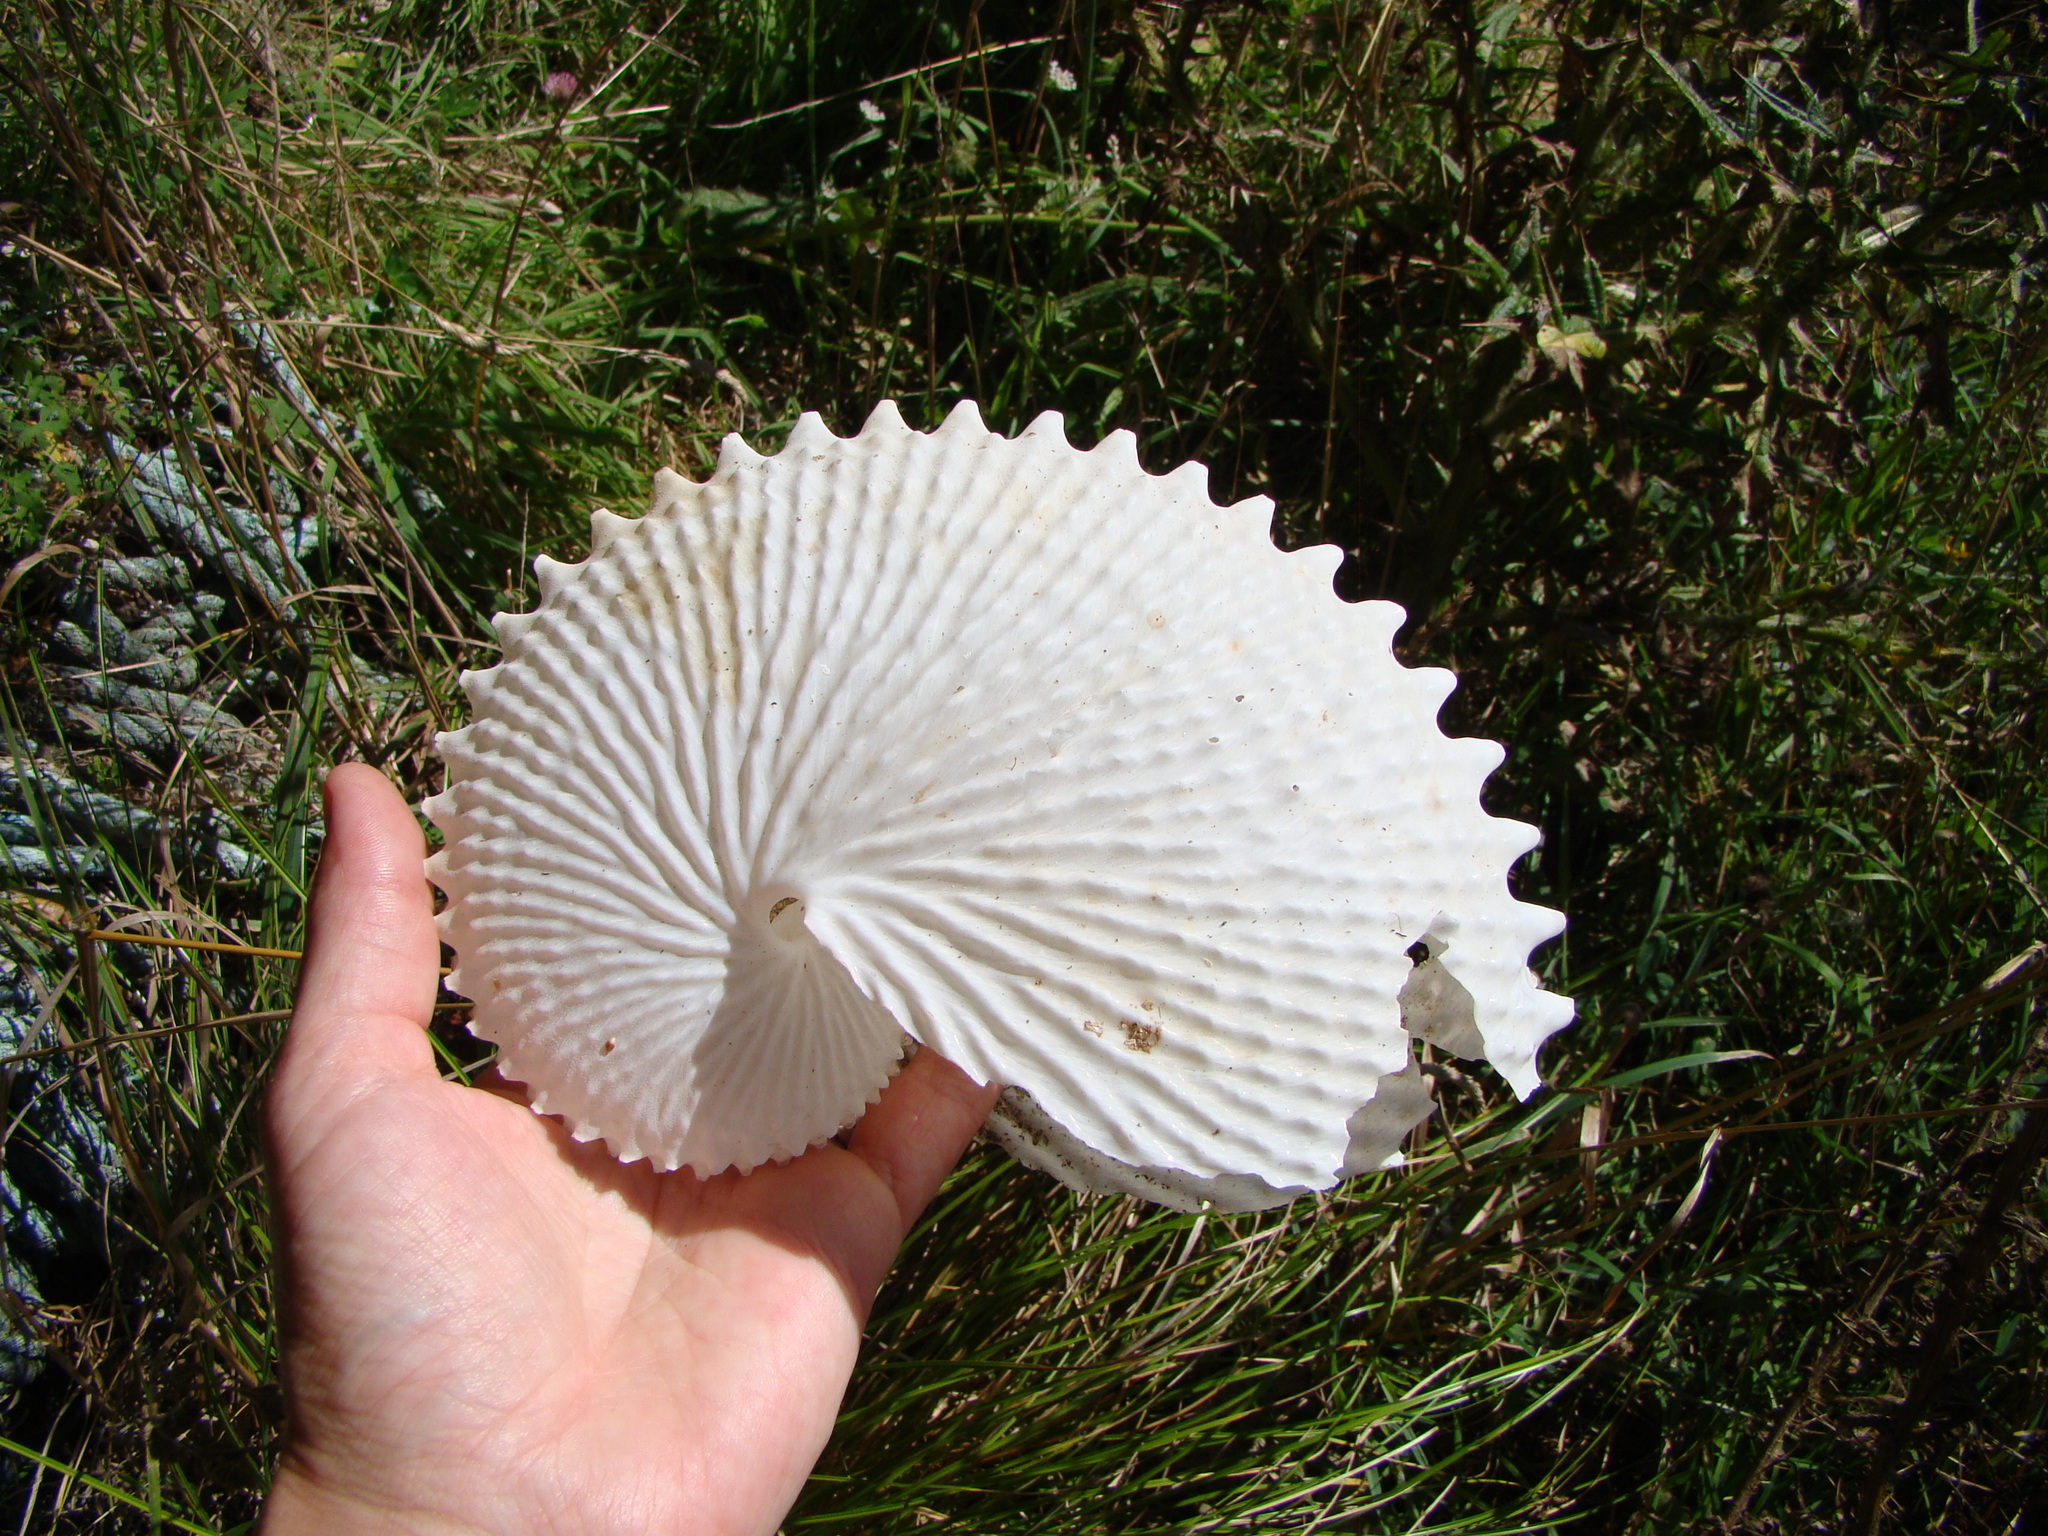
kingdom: Animalia
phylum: Mollusca
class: Cephalopoda
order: Octopoda
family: Argonautidae
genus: Argonauta
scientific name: Argonauta nodosus
